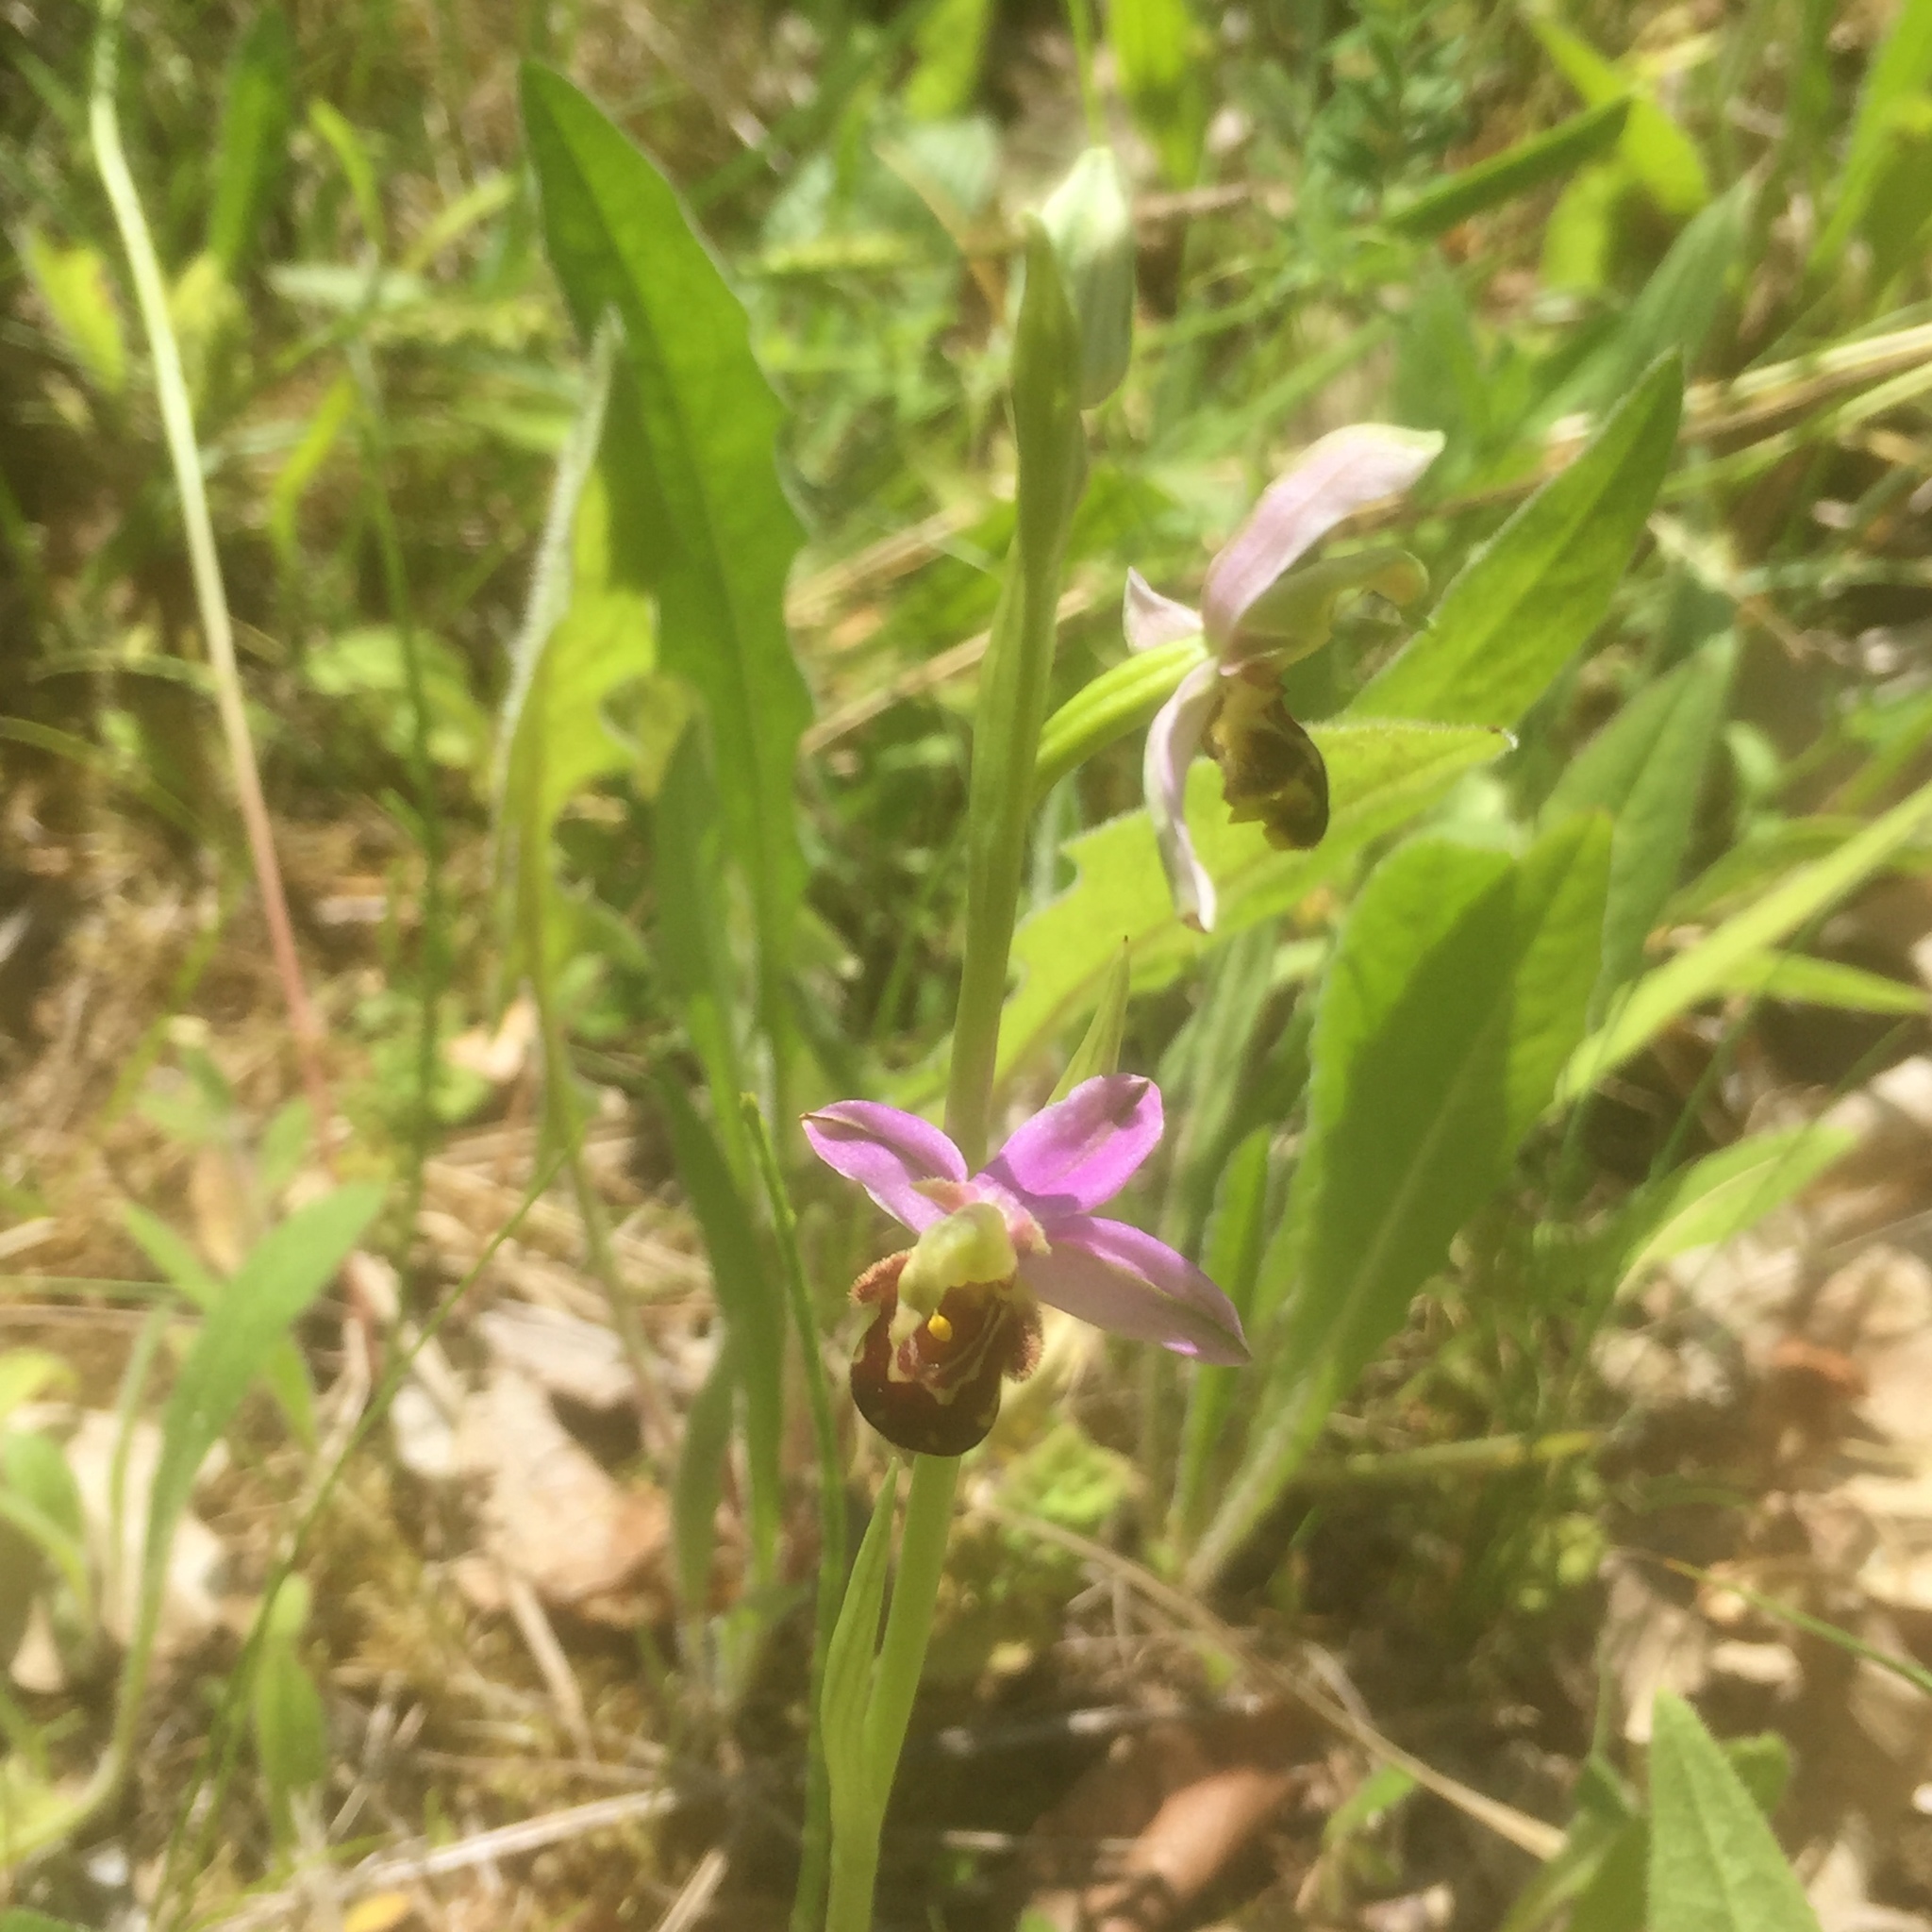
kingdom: Plantae
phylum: Tracheophyta
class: Liliopsida
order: Asparagales
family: Orchidaceae
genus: Ophrys
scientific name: Ophrys apifera
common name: Bee orchid
